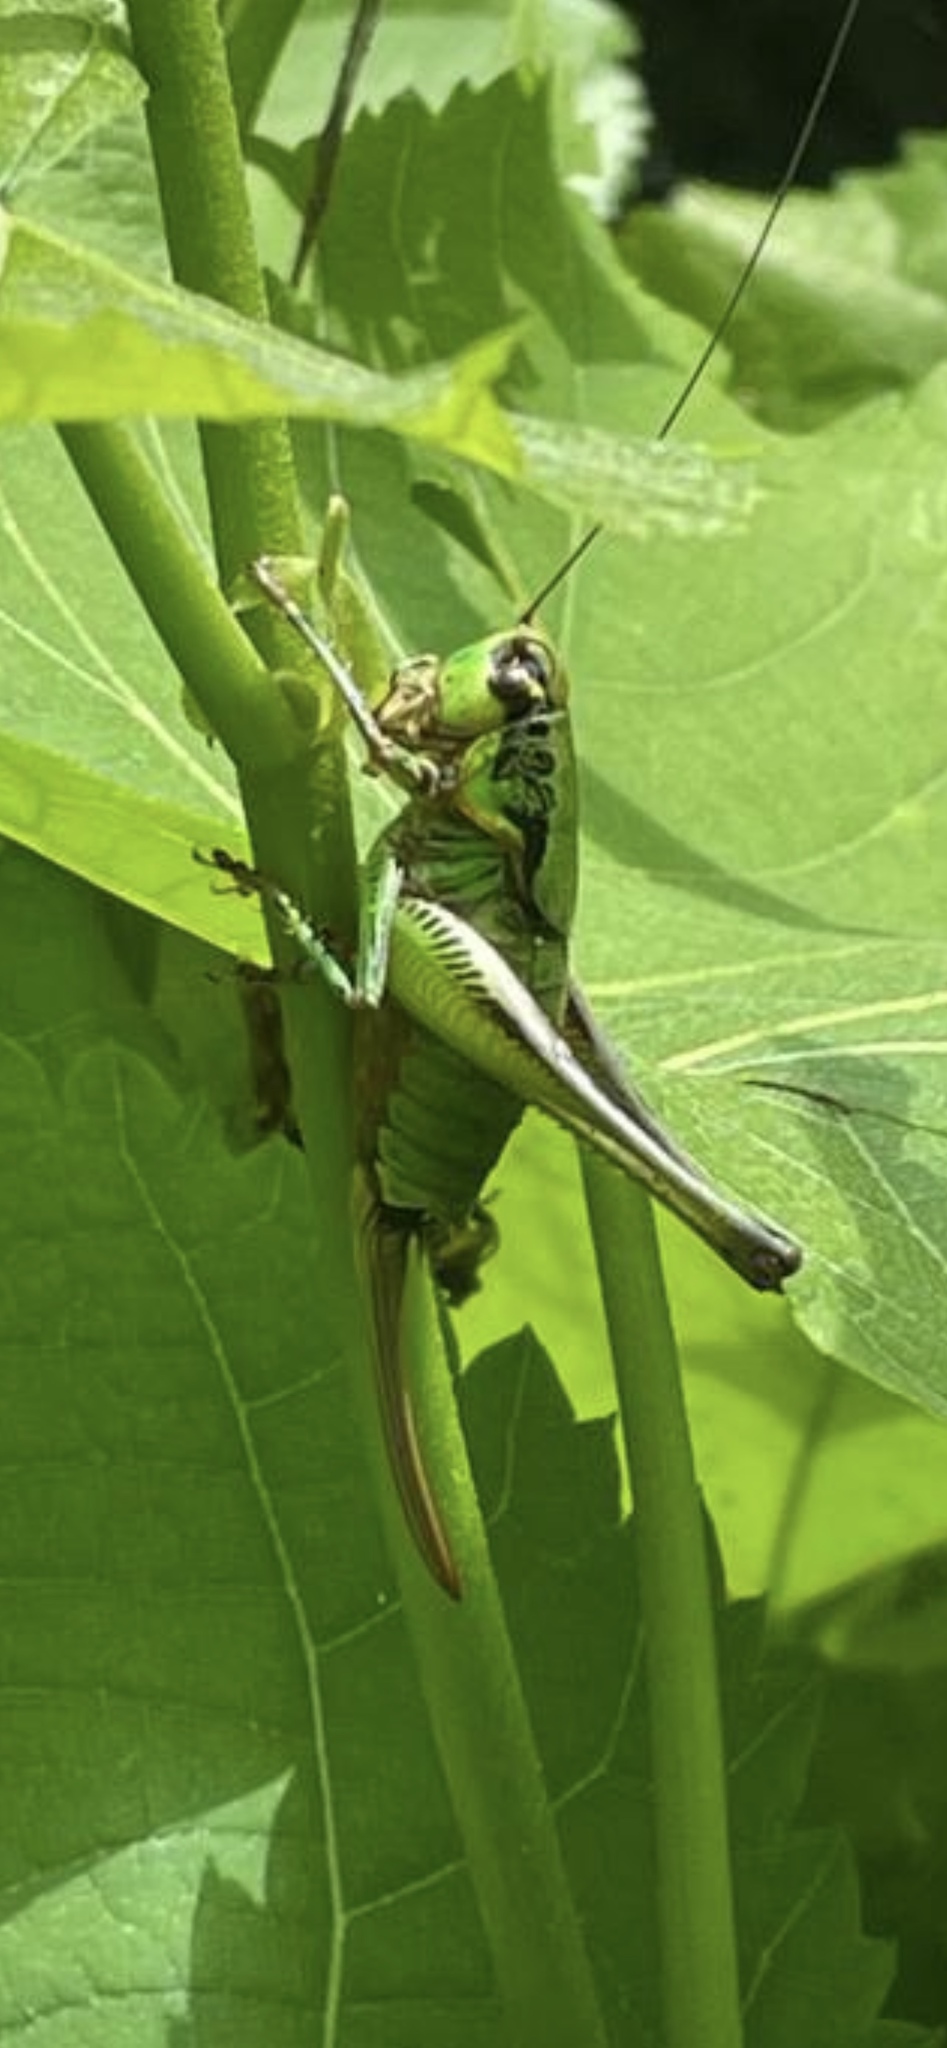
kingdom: Animalia
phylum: Arthropoda
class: Insecta
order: Orthoptera
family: Tettigoniidae
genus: Eupholidoptera
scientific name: Eupholidoptera chabrieri
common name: Chabrier's marbled bush-cricket
